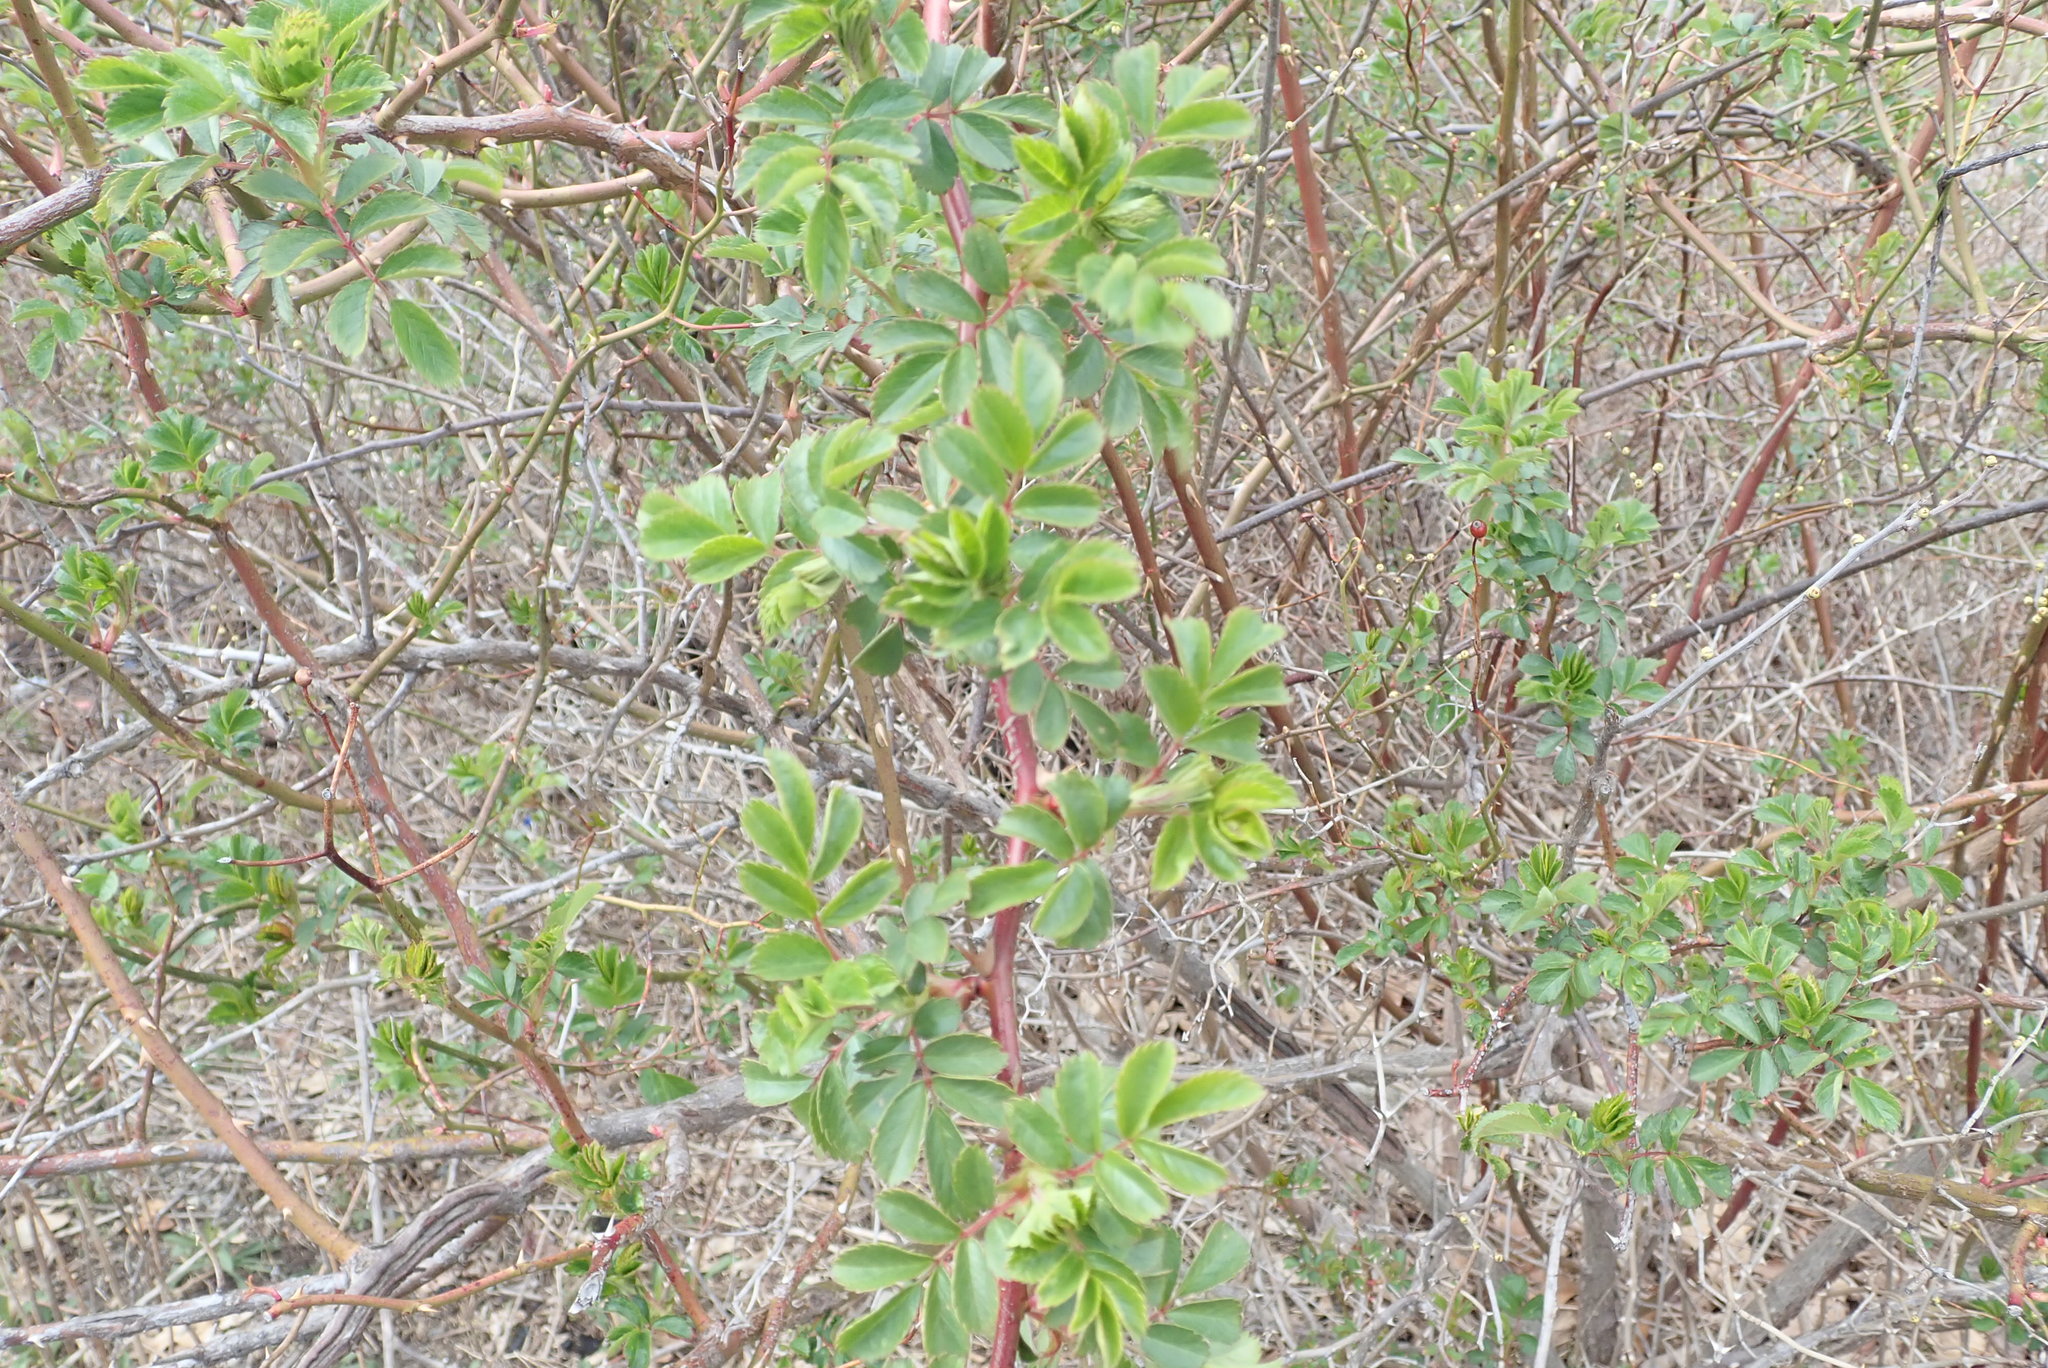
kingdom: Plantae
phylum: Tracheophyta
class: Magnoliopsida
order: Rosales
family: Rosaceae
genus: Rosa
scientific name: Rosa multiflora
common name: Multiflora rose
